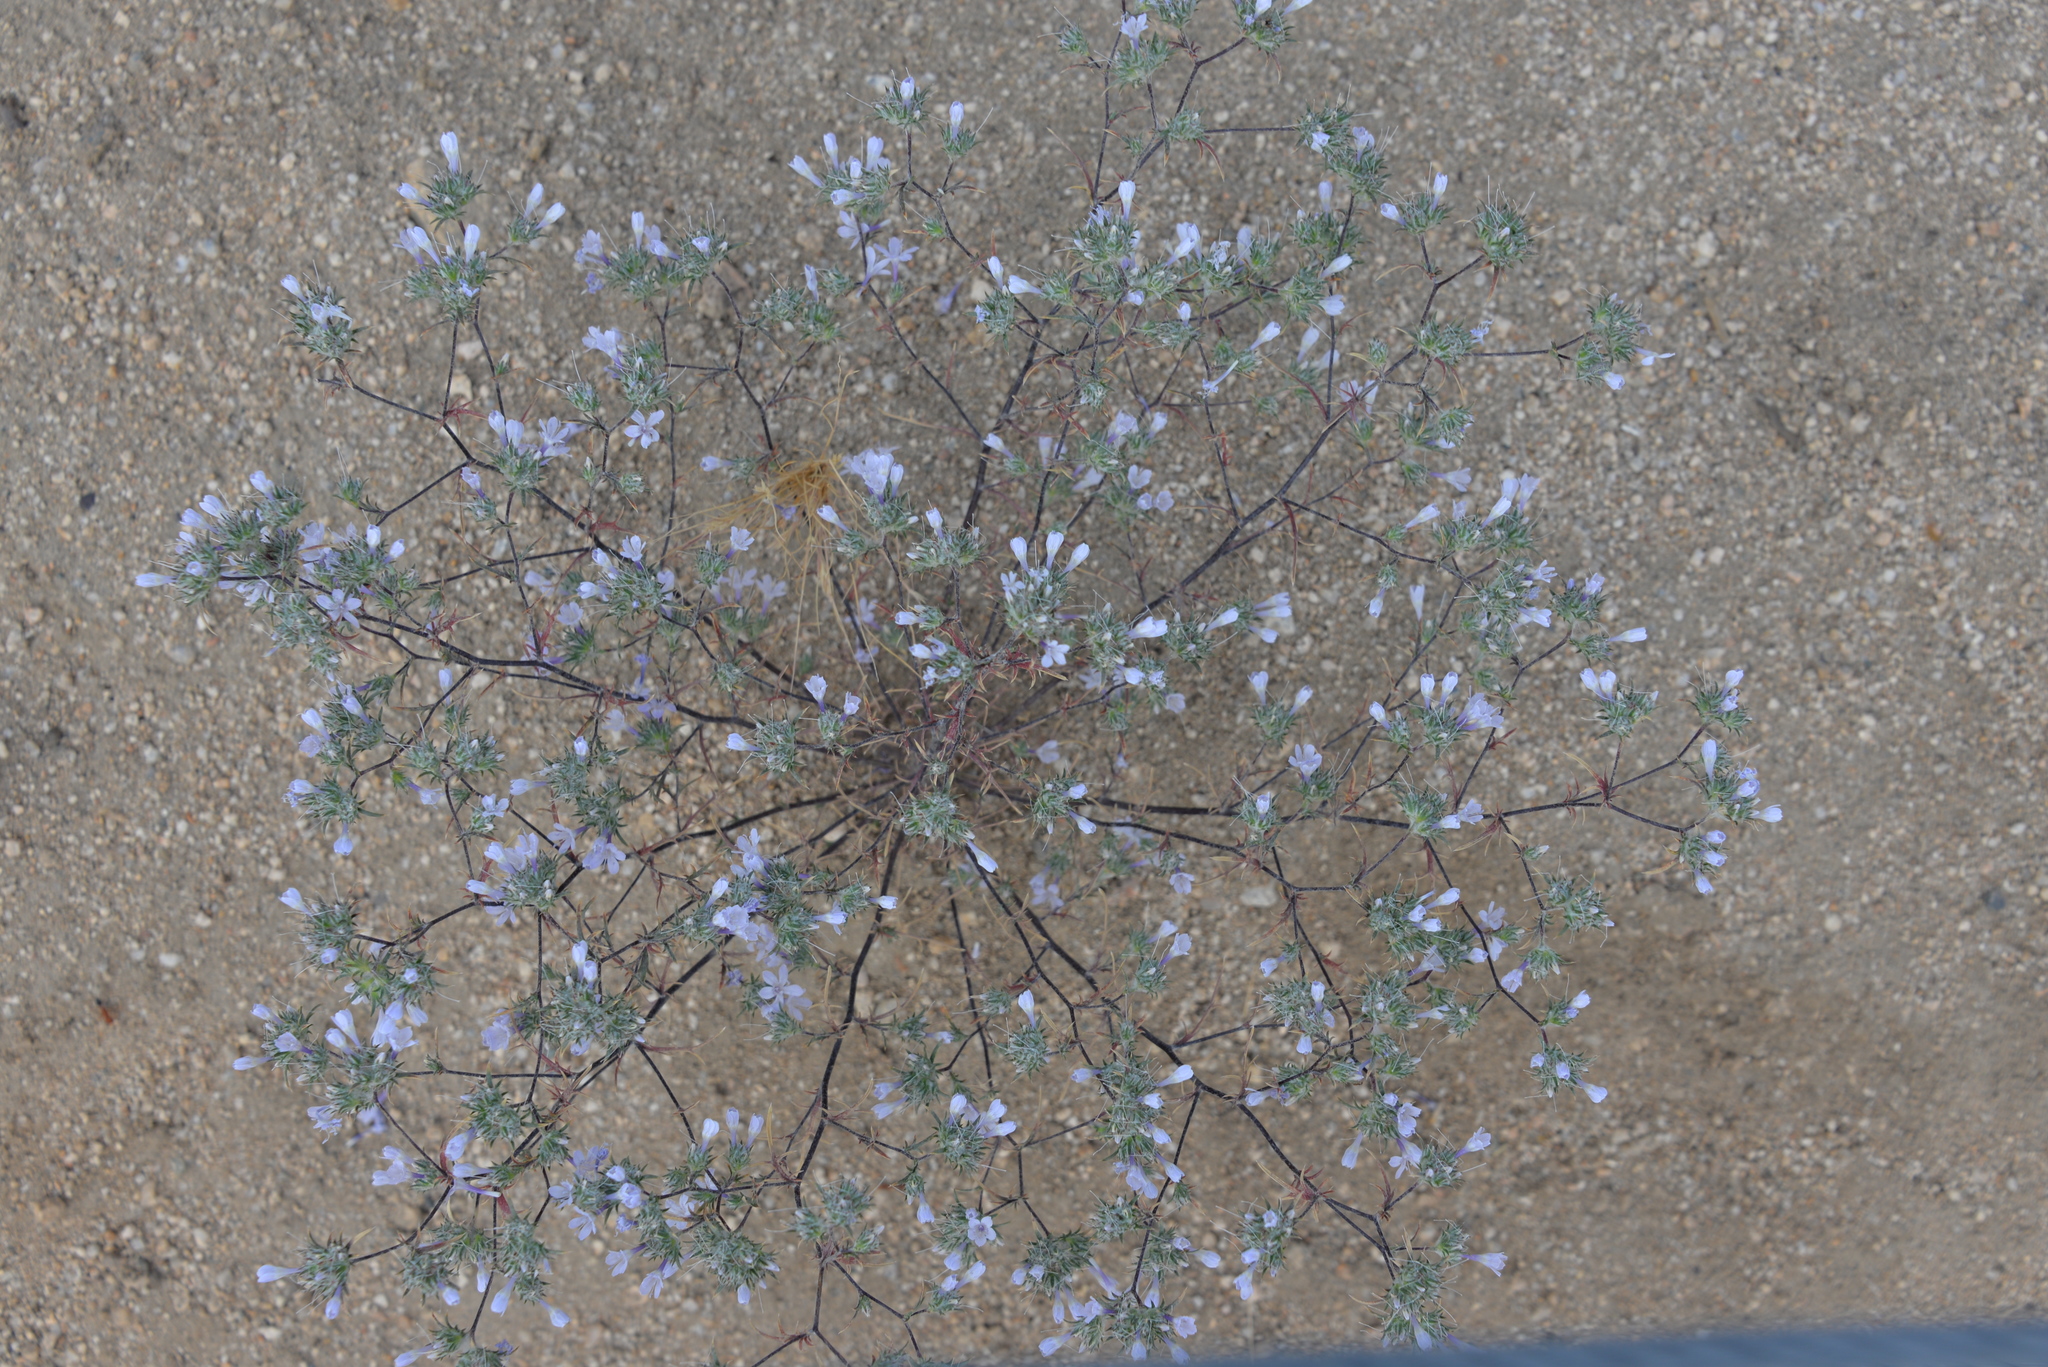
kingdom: Plantae
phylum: Tracheophyta
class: Magnoliopsida
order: Ericales
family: Polemoniaceae
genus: Eriastrum
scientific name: Eriastrum eremicum
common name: Desert eriastrum
